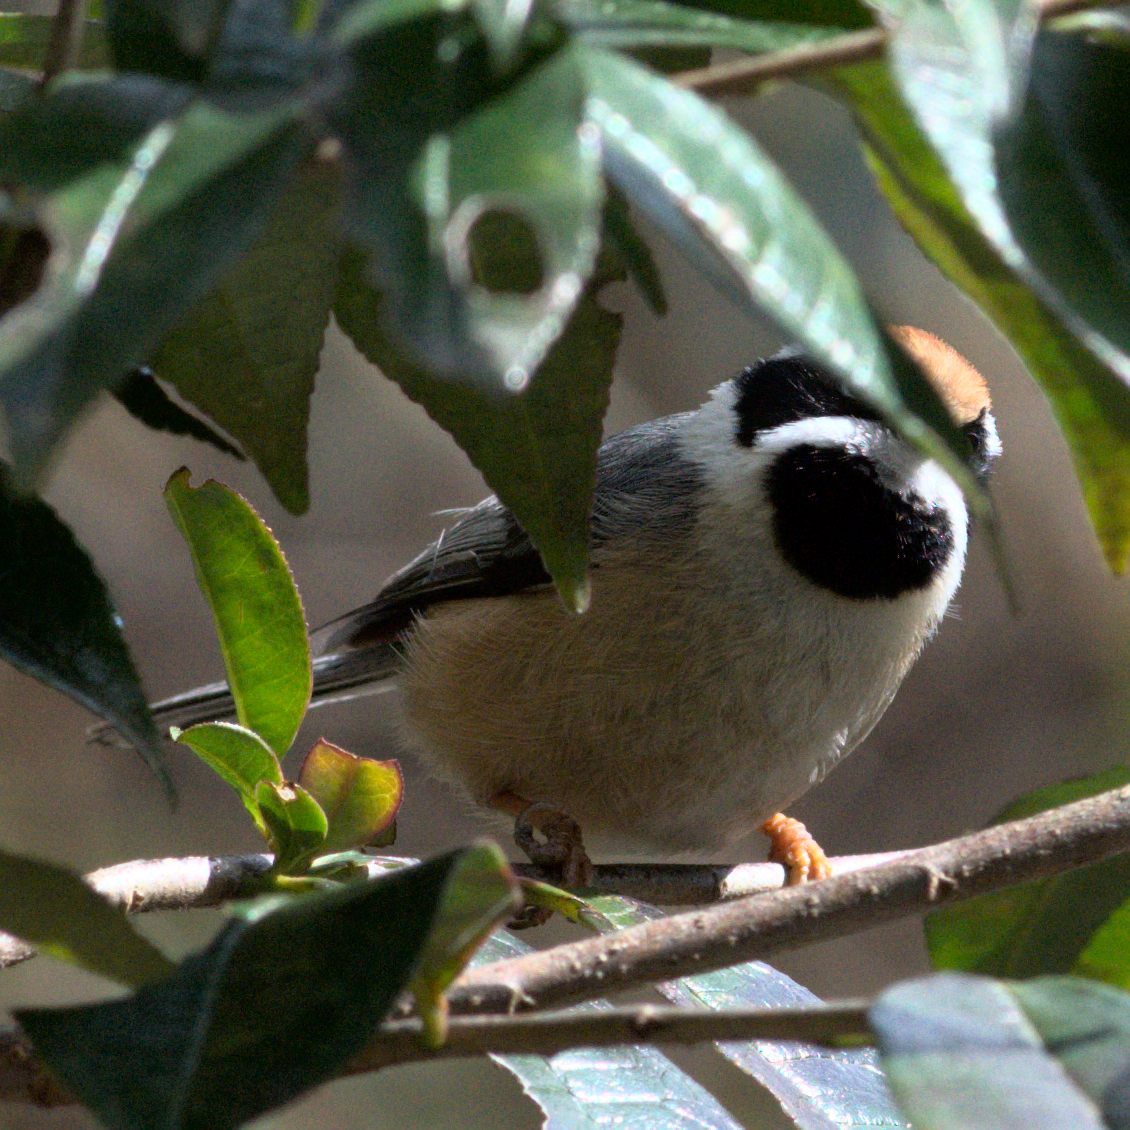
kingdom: Animalia
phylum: Chordata
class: Aves
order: Passeriformes
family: Aegithalidae
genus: Aegithalos
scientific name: Aegithalos concinnus
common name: Black-throated bushtit
